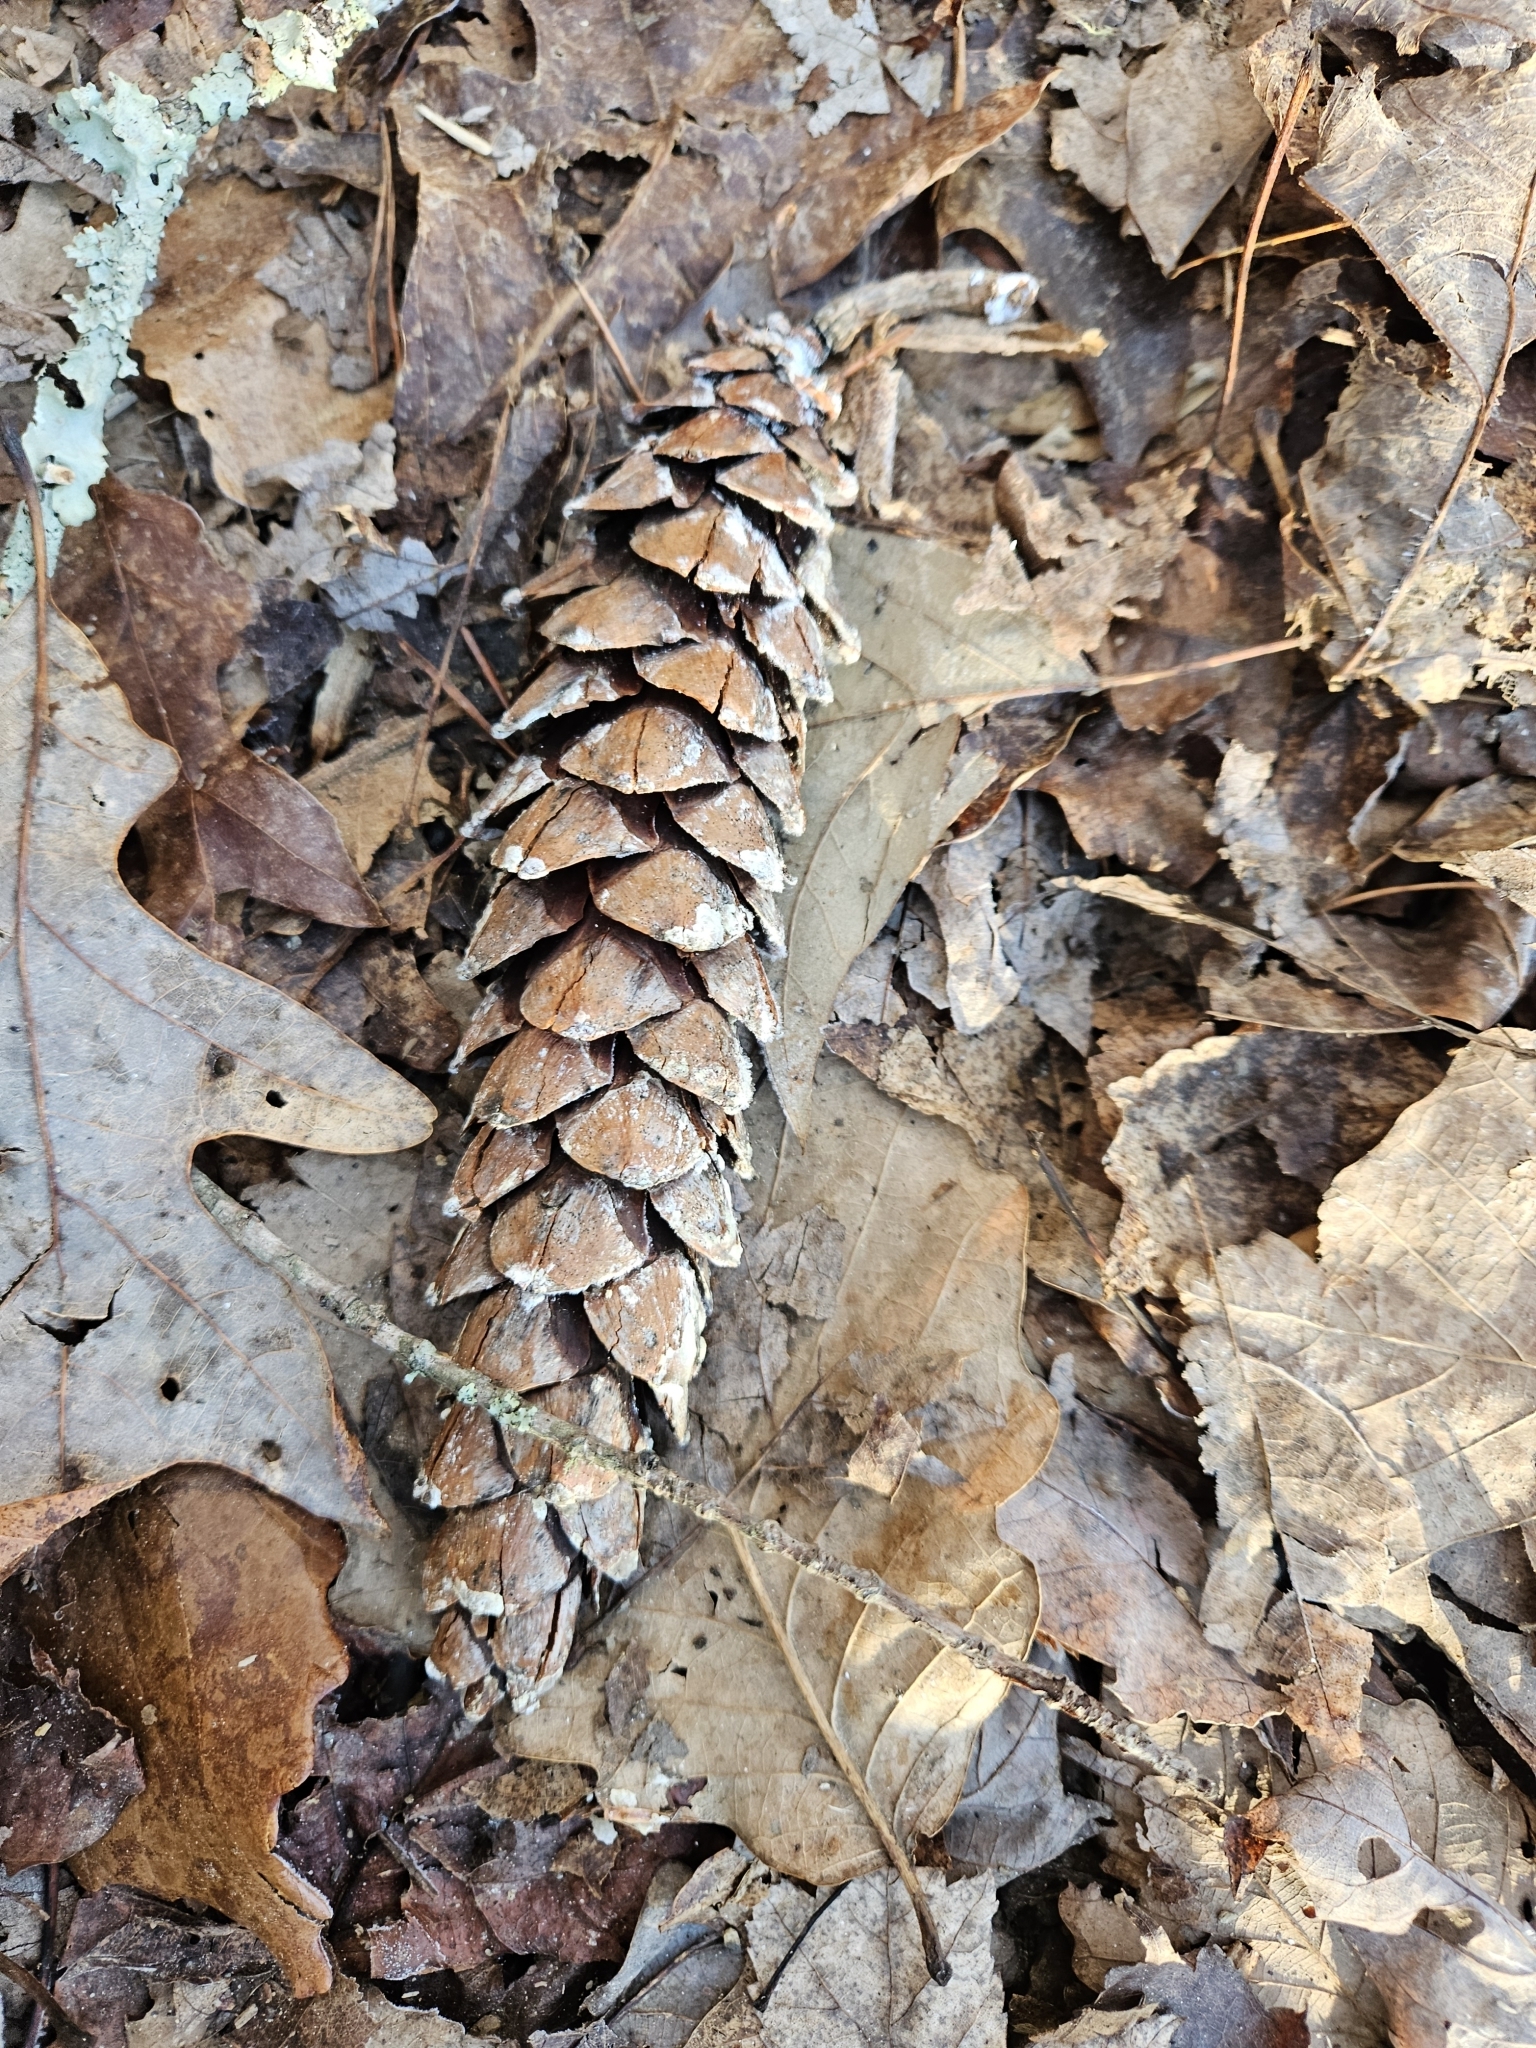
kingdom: Plantae
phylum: Tracheophyta
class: Pinopsida
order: Pinales
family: Pinaceae
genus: Pinus
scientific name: Pinus strobus
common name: Weymouth pine
